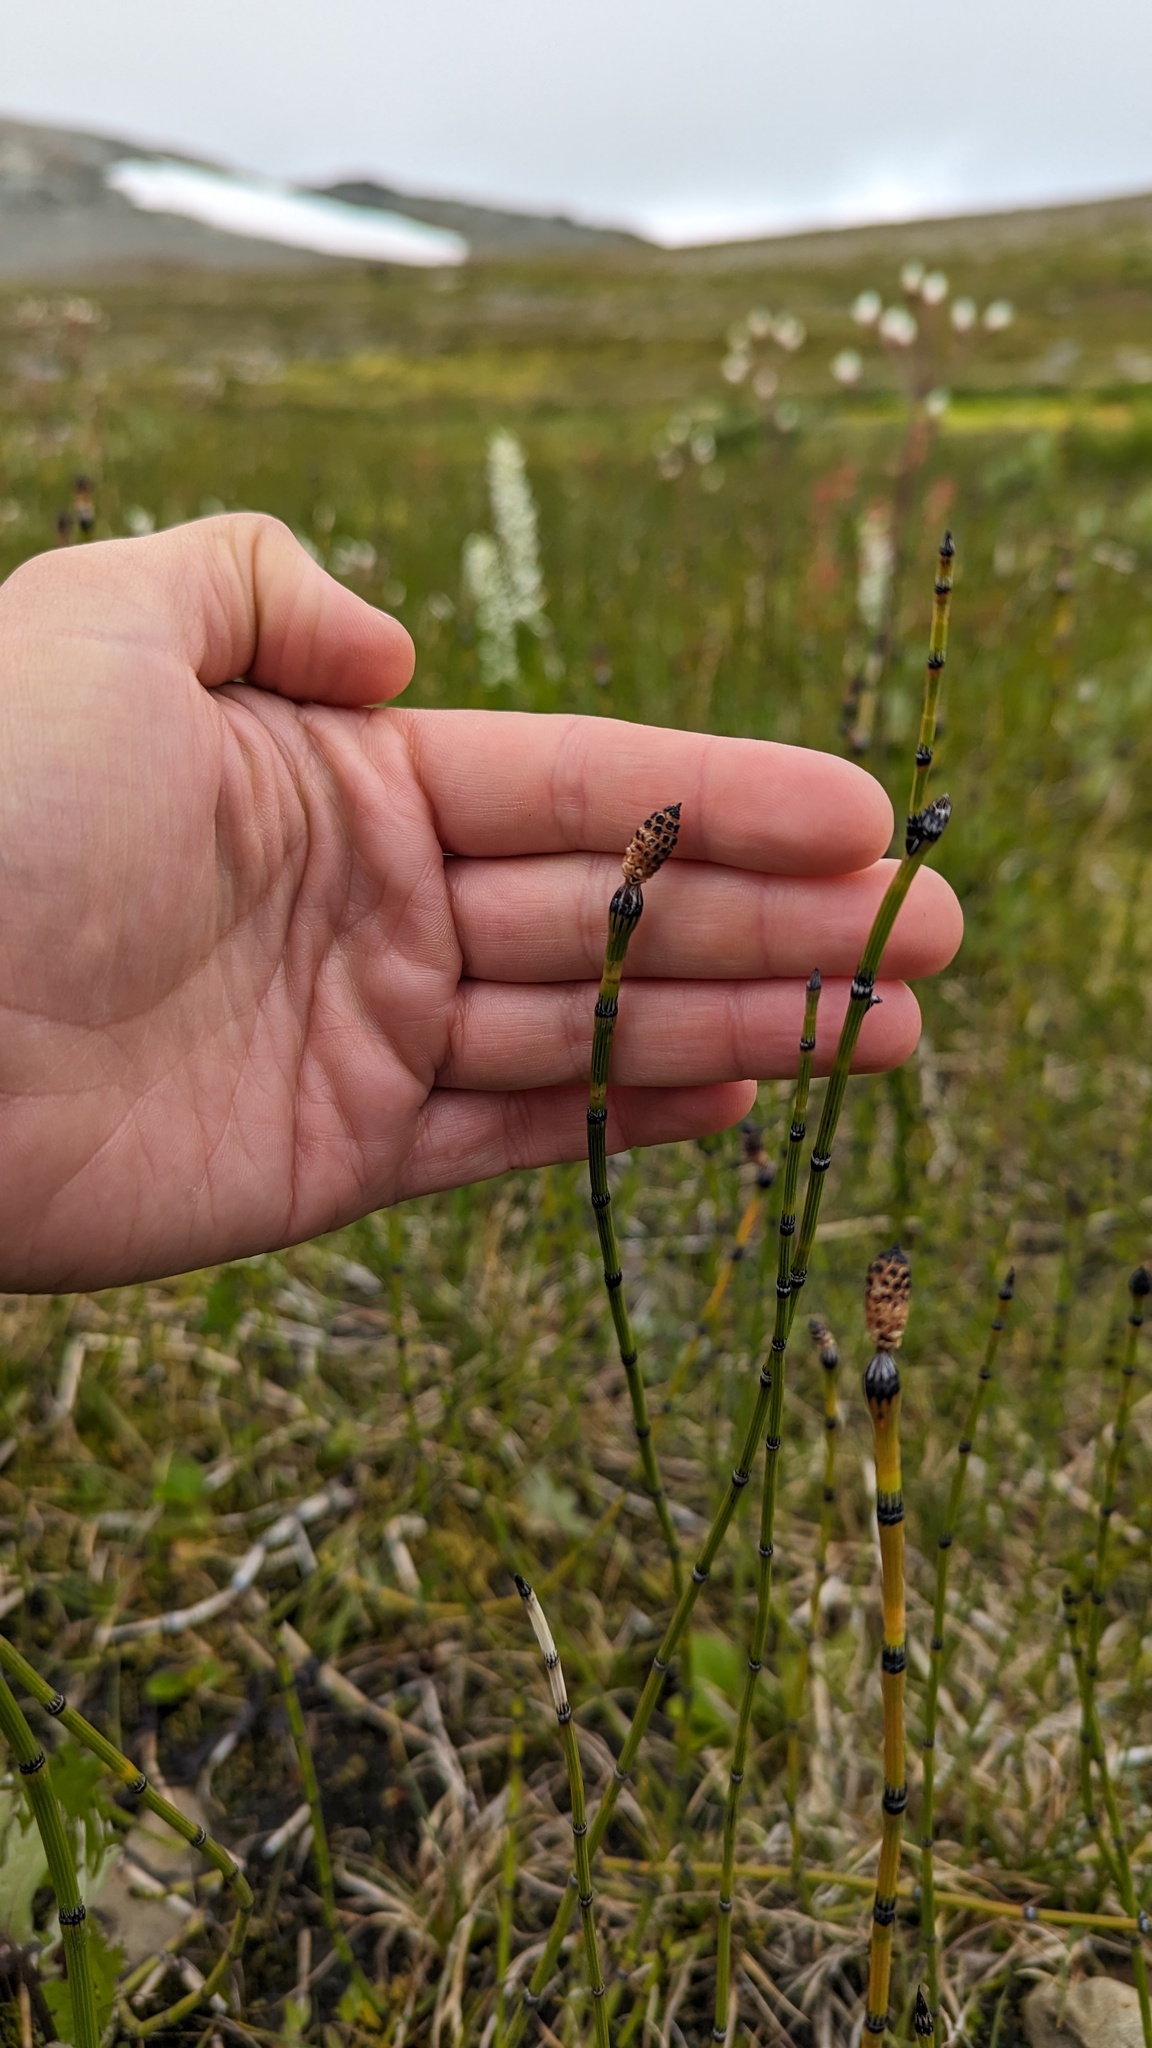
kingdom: Plantae
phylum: Tracheophyta
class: Polypodiopsida
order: Equisetales
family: Equisetaceae
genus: Equisetum
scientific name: Equisetum variegatum
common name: Variegated horsetail
